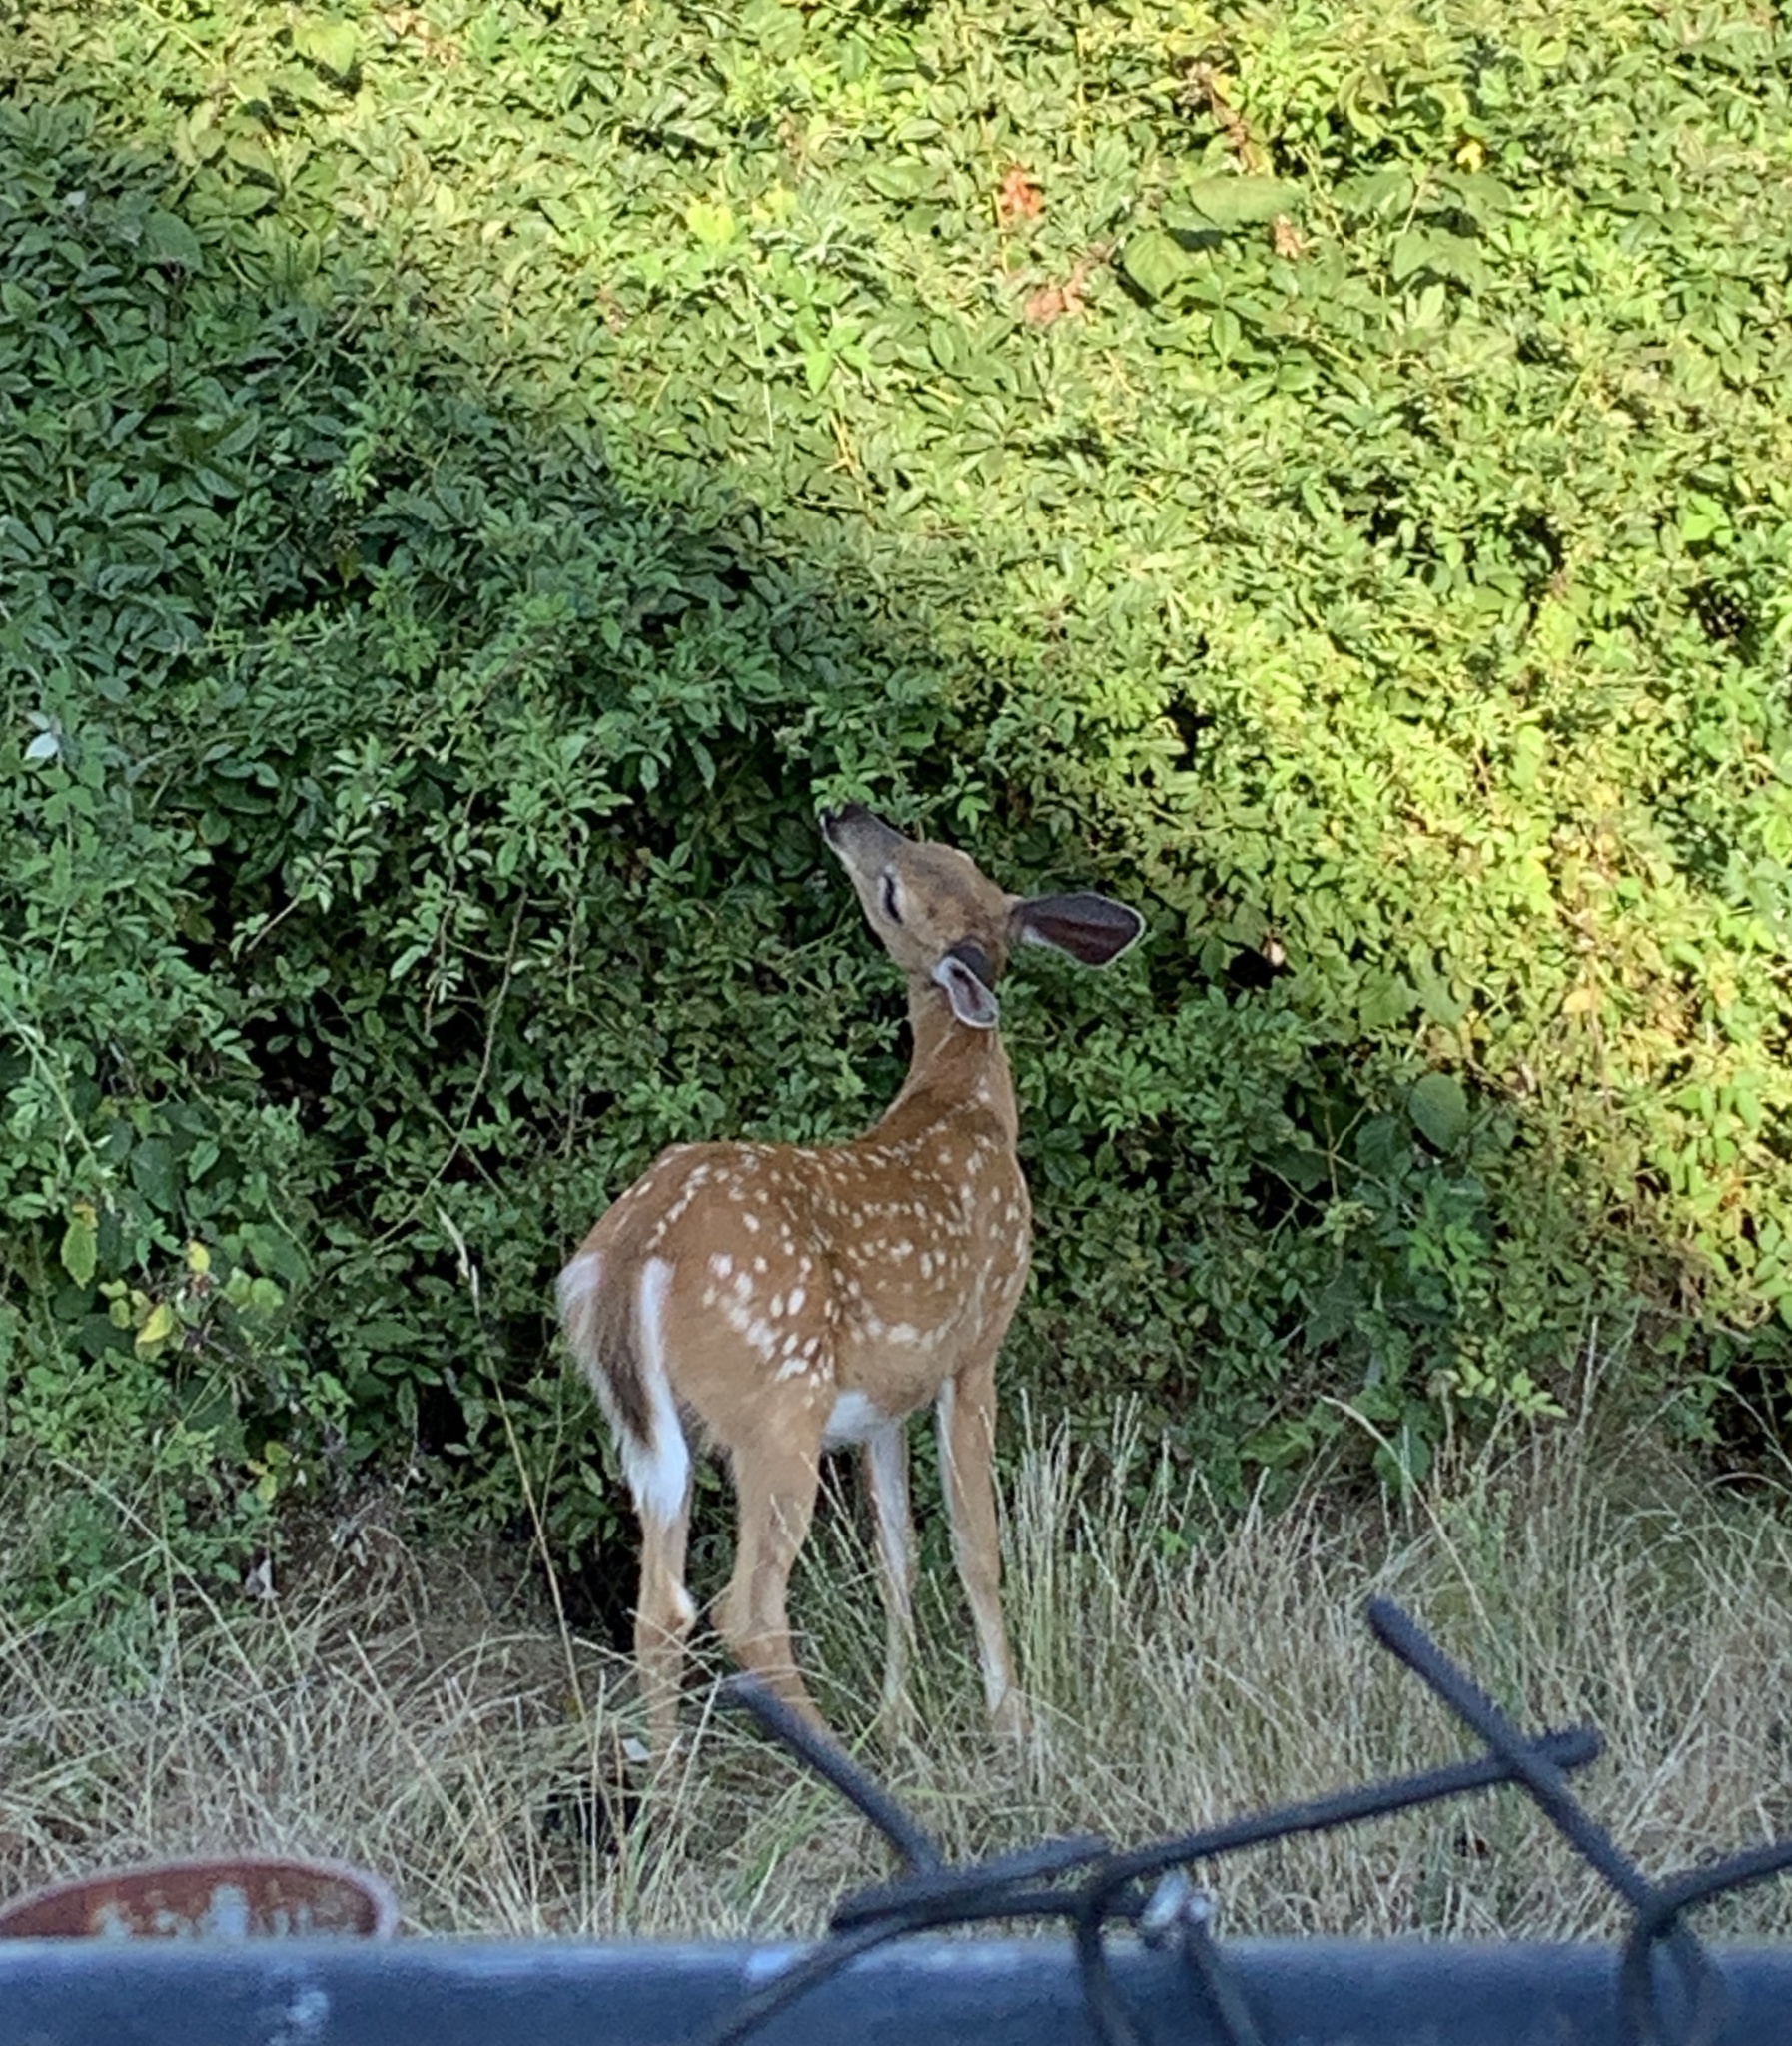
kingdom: Animalia
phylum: Chordata
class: Mammalia
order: Artiodactyla
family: Cervidae
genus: Odocoileus
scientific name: Odocoileus virginianus
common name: White-tailed deer
